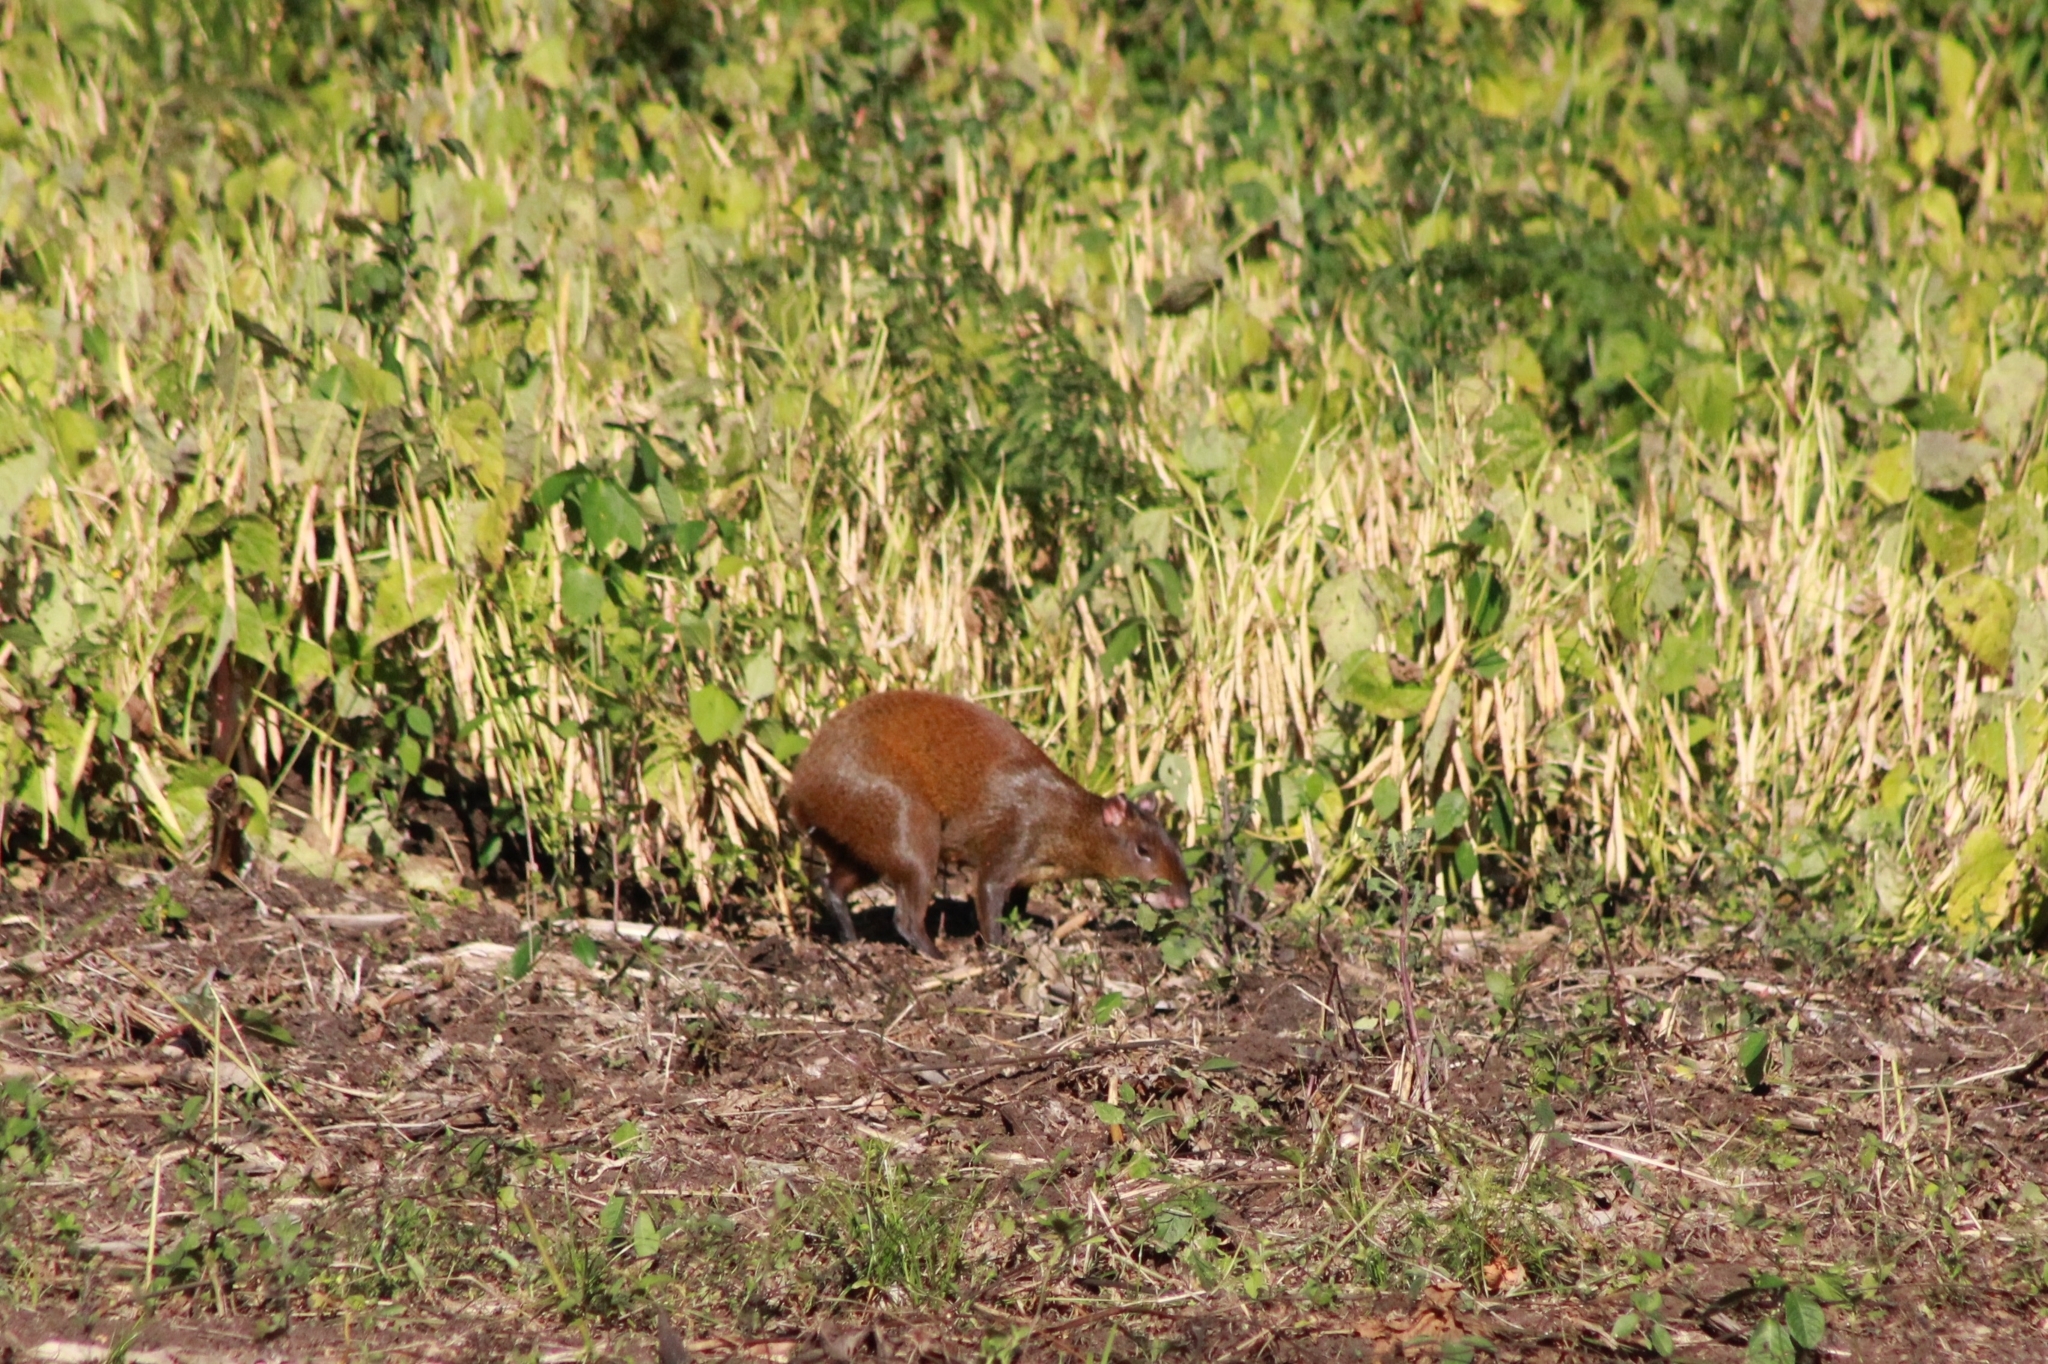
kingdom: Animalia
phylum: Chordata
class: Mammalia
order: Rodentia
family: Dasyproctidae
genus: Dasyprocta
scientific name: Dasyprocta punctata
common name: Central american agouti
